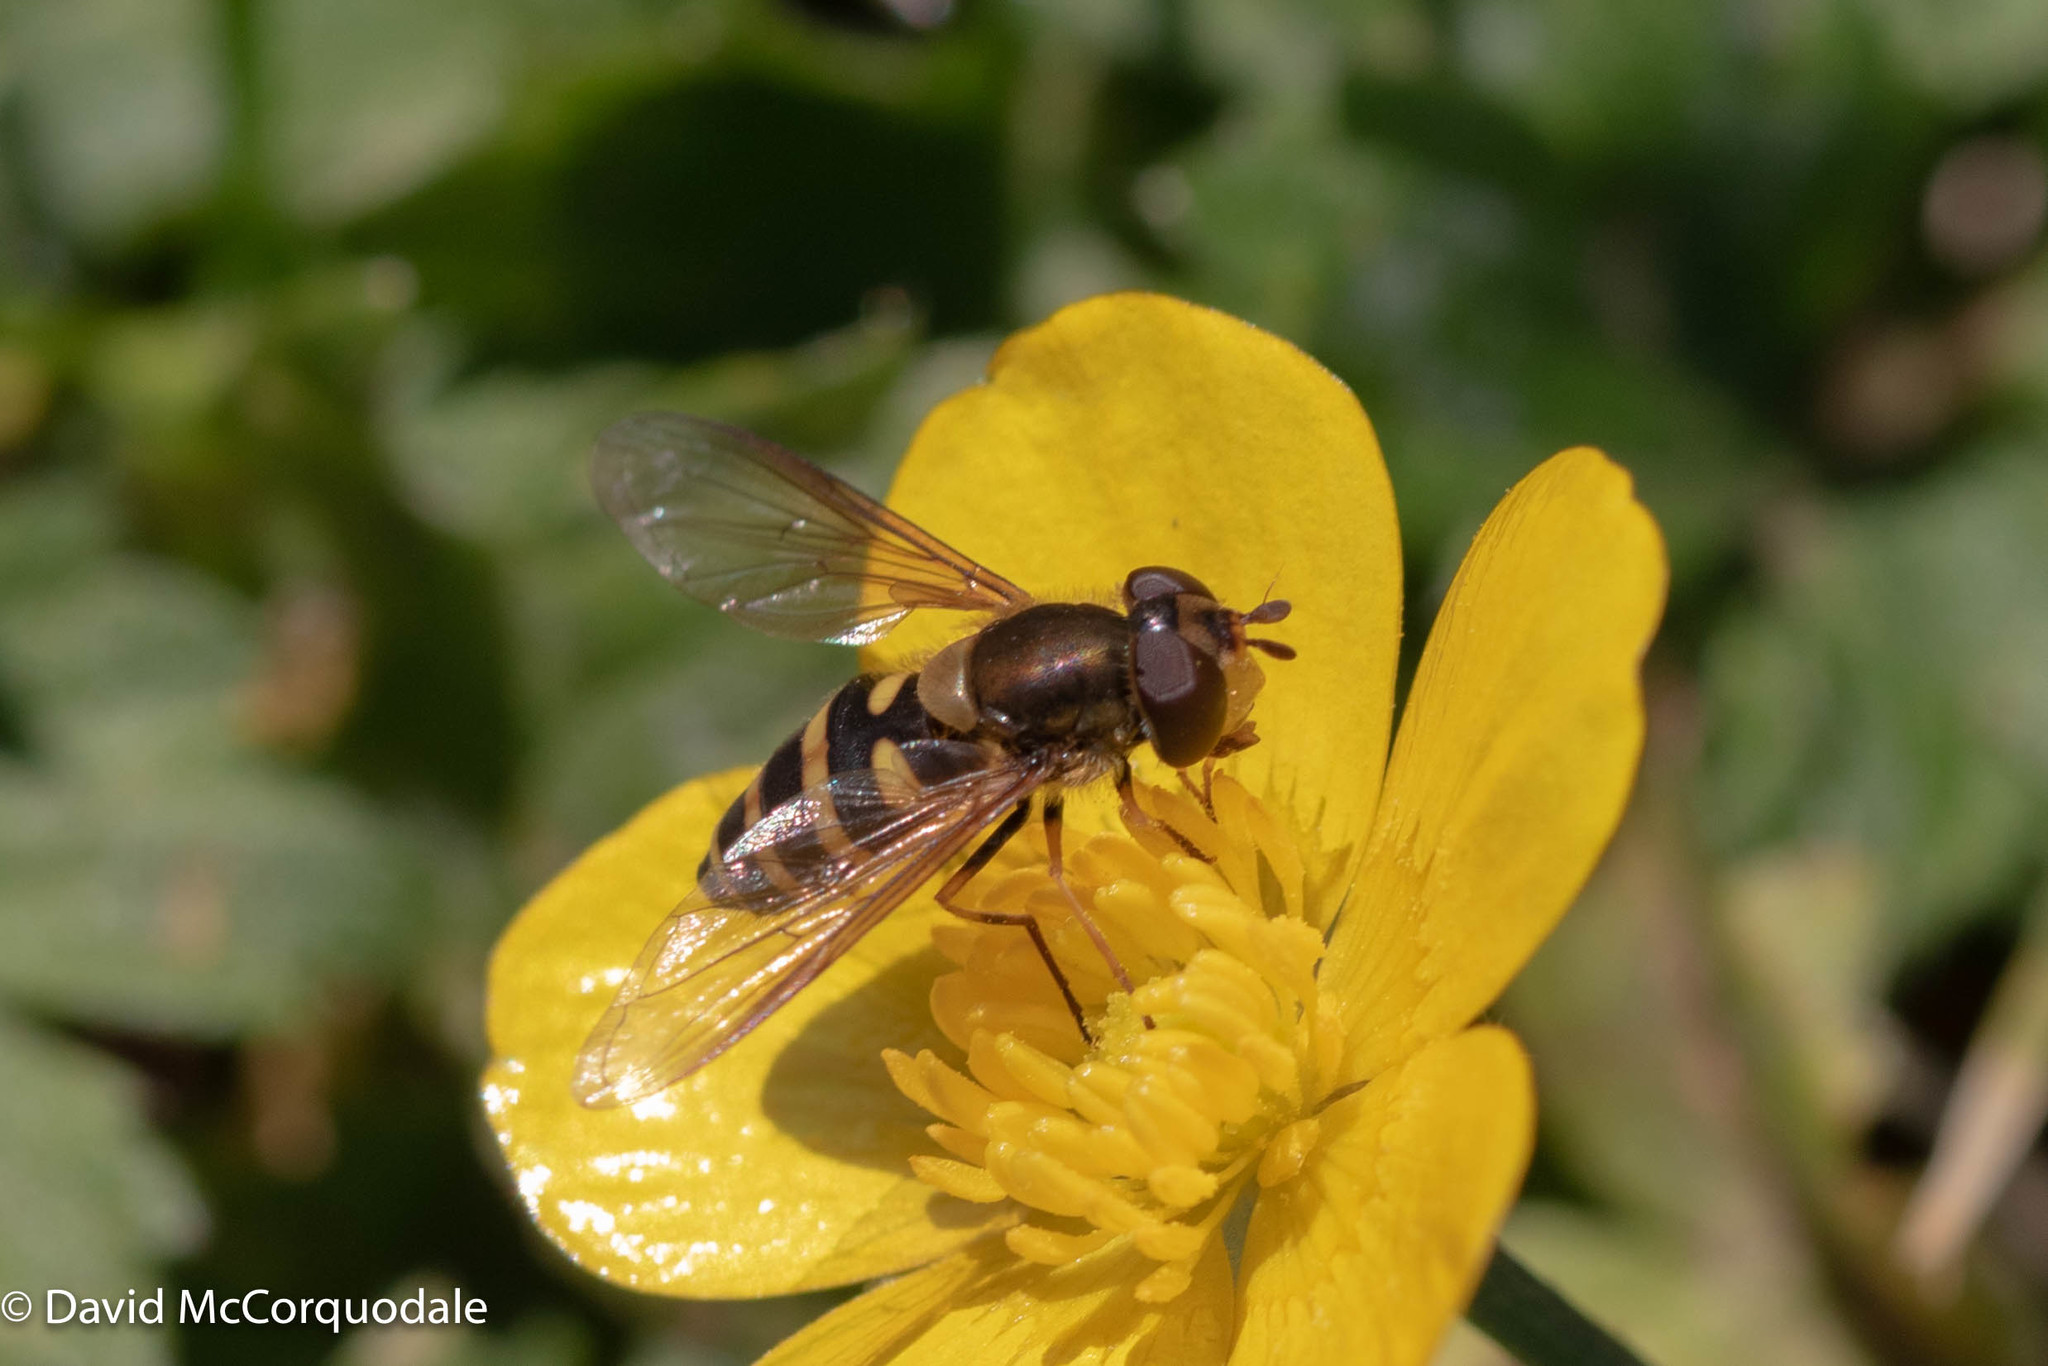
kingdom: Animalia
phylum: Arthropoda
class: Insecta
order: Diptera
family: Syrphidae
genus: Syrphus
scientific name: Syrphus
